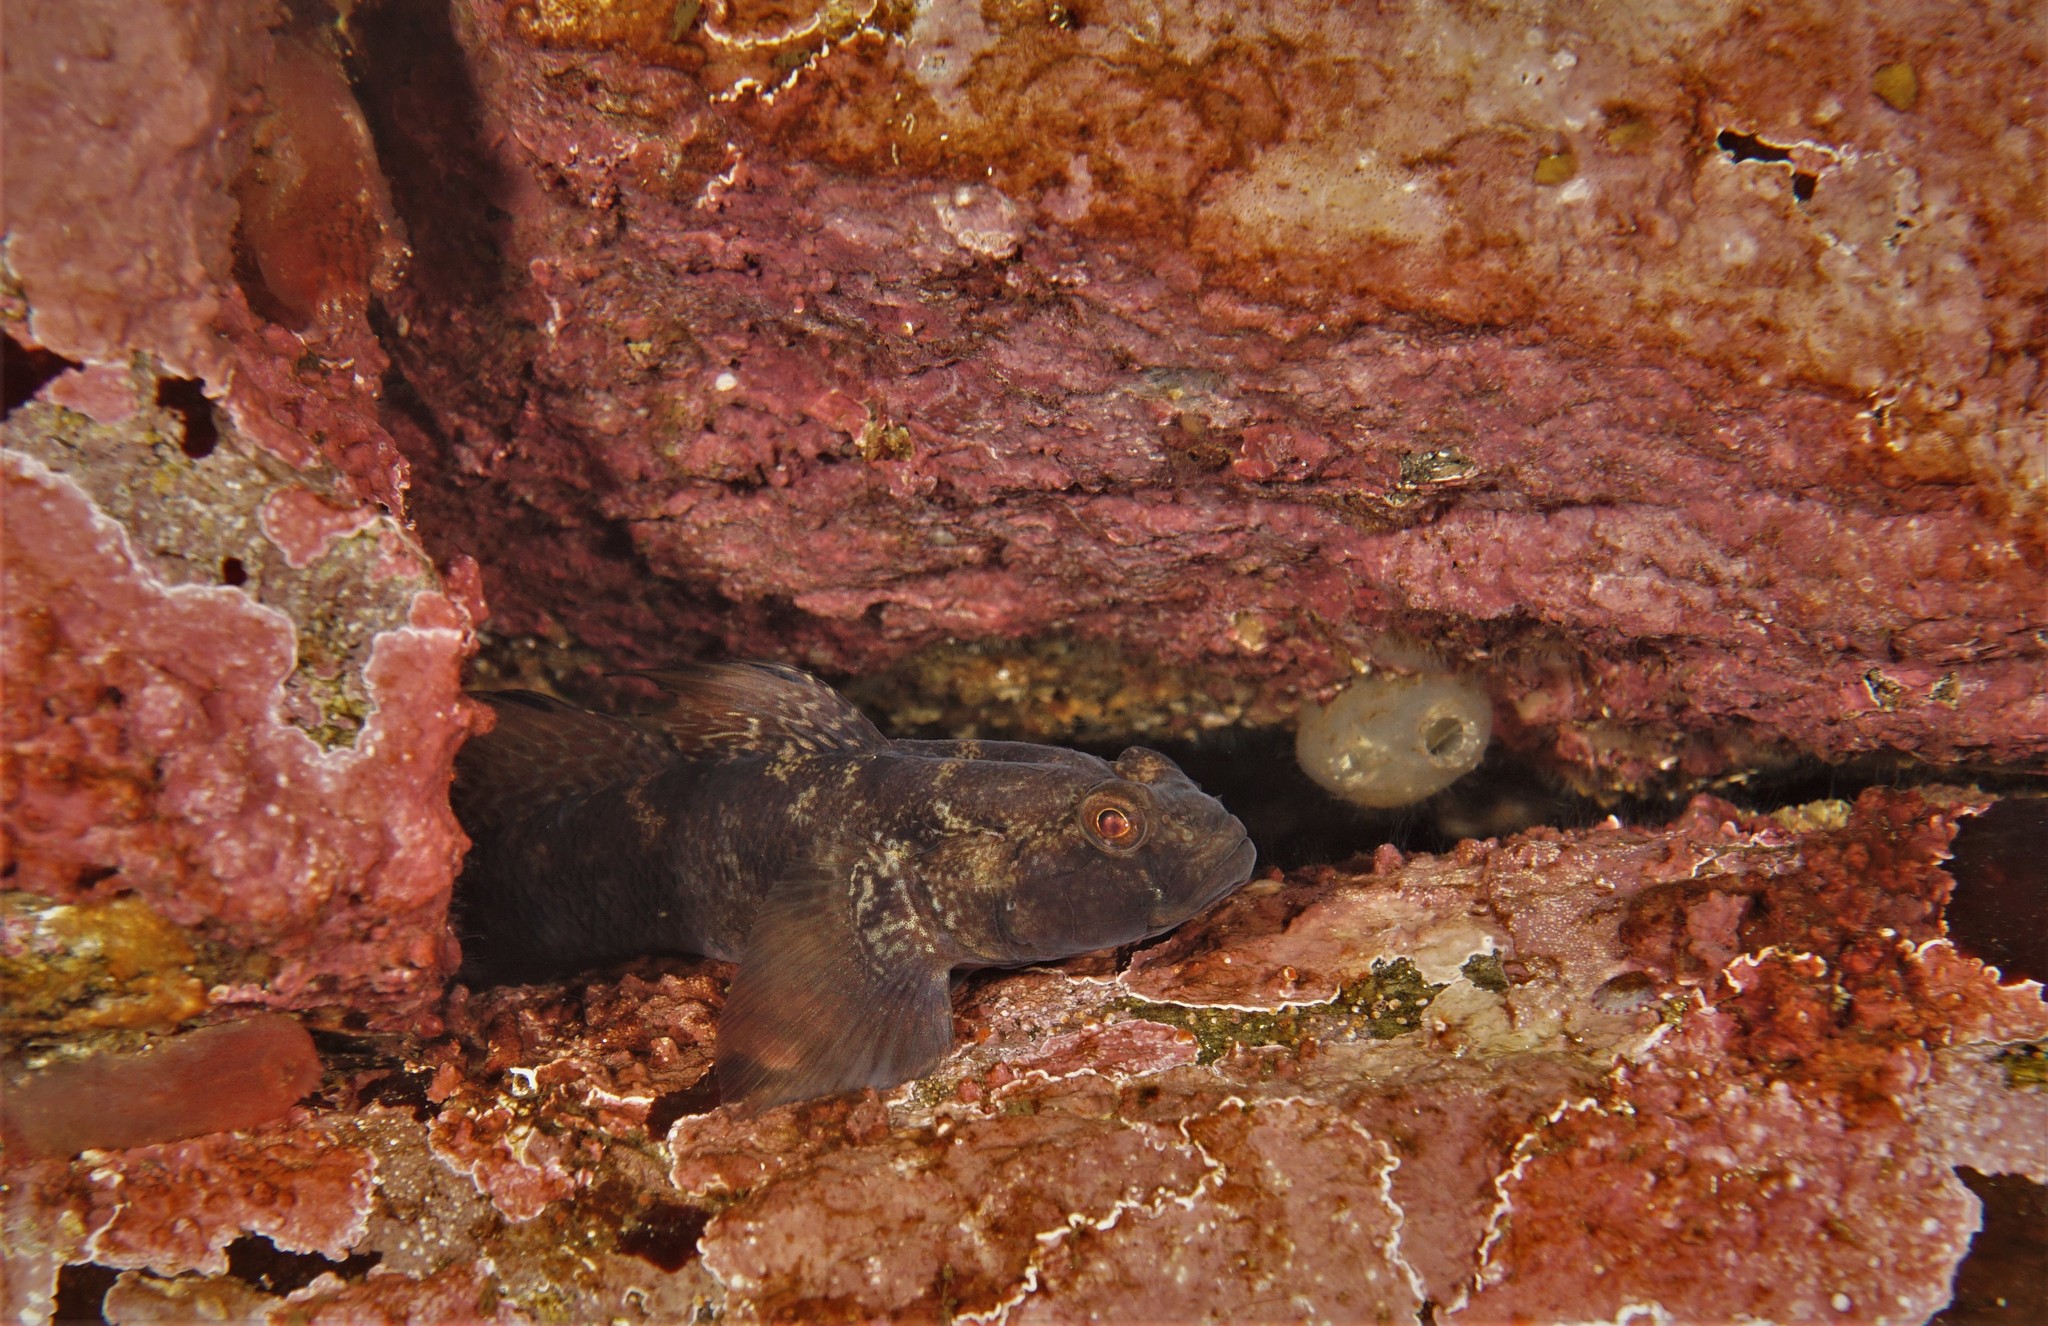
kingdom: Animalia
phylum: Chordata
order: Perciformes
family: Gobiidae
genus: Gobius
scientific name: Gobius niger
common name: Black goby
